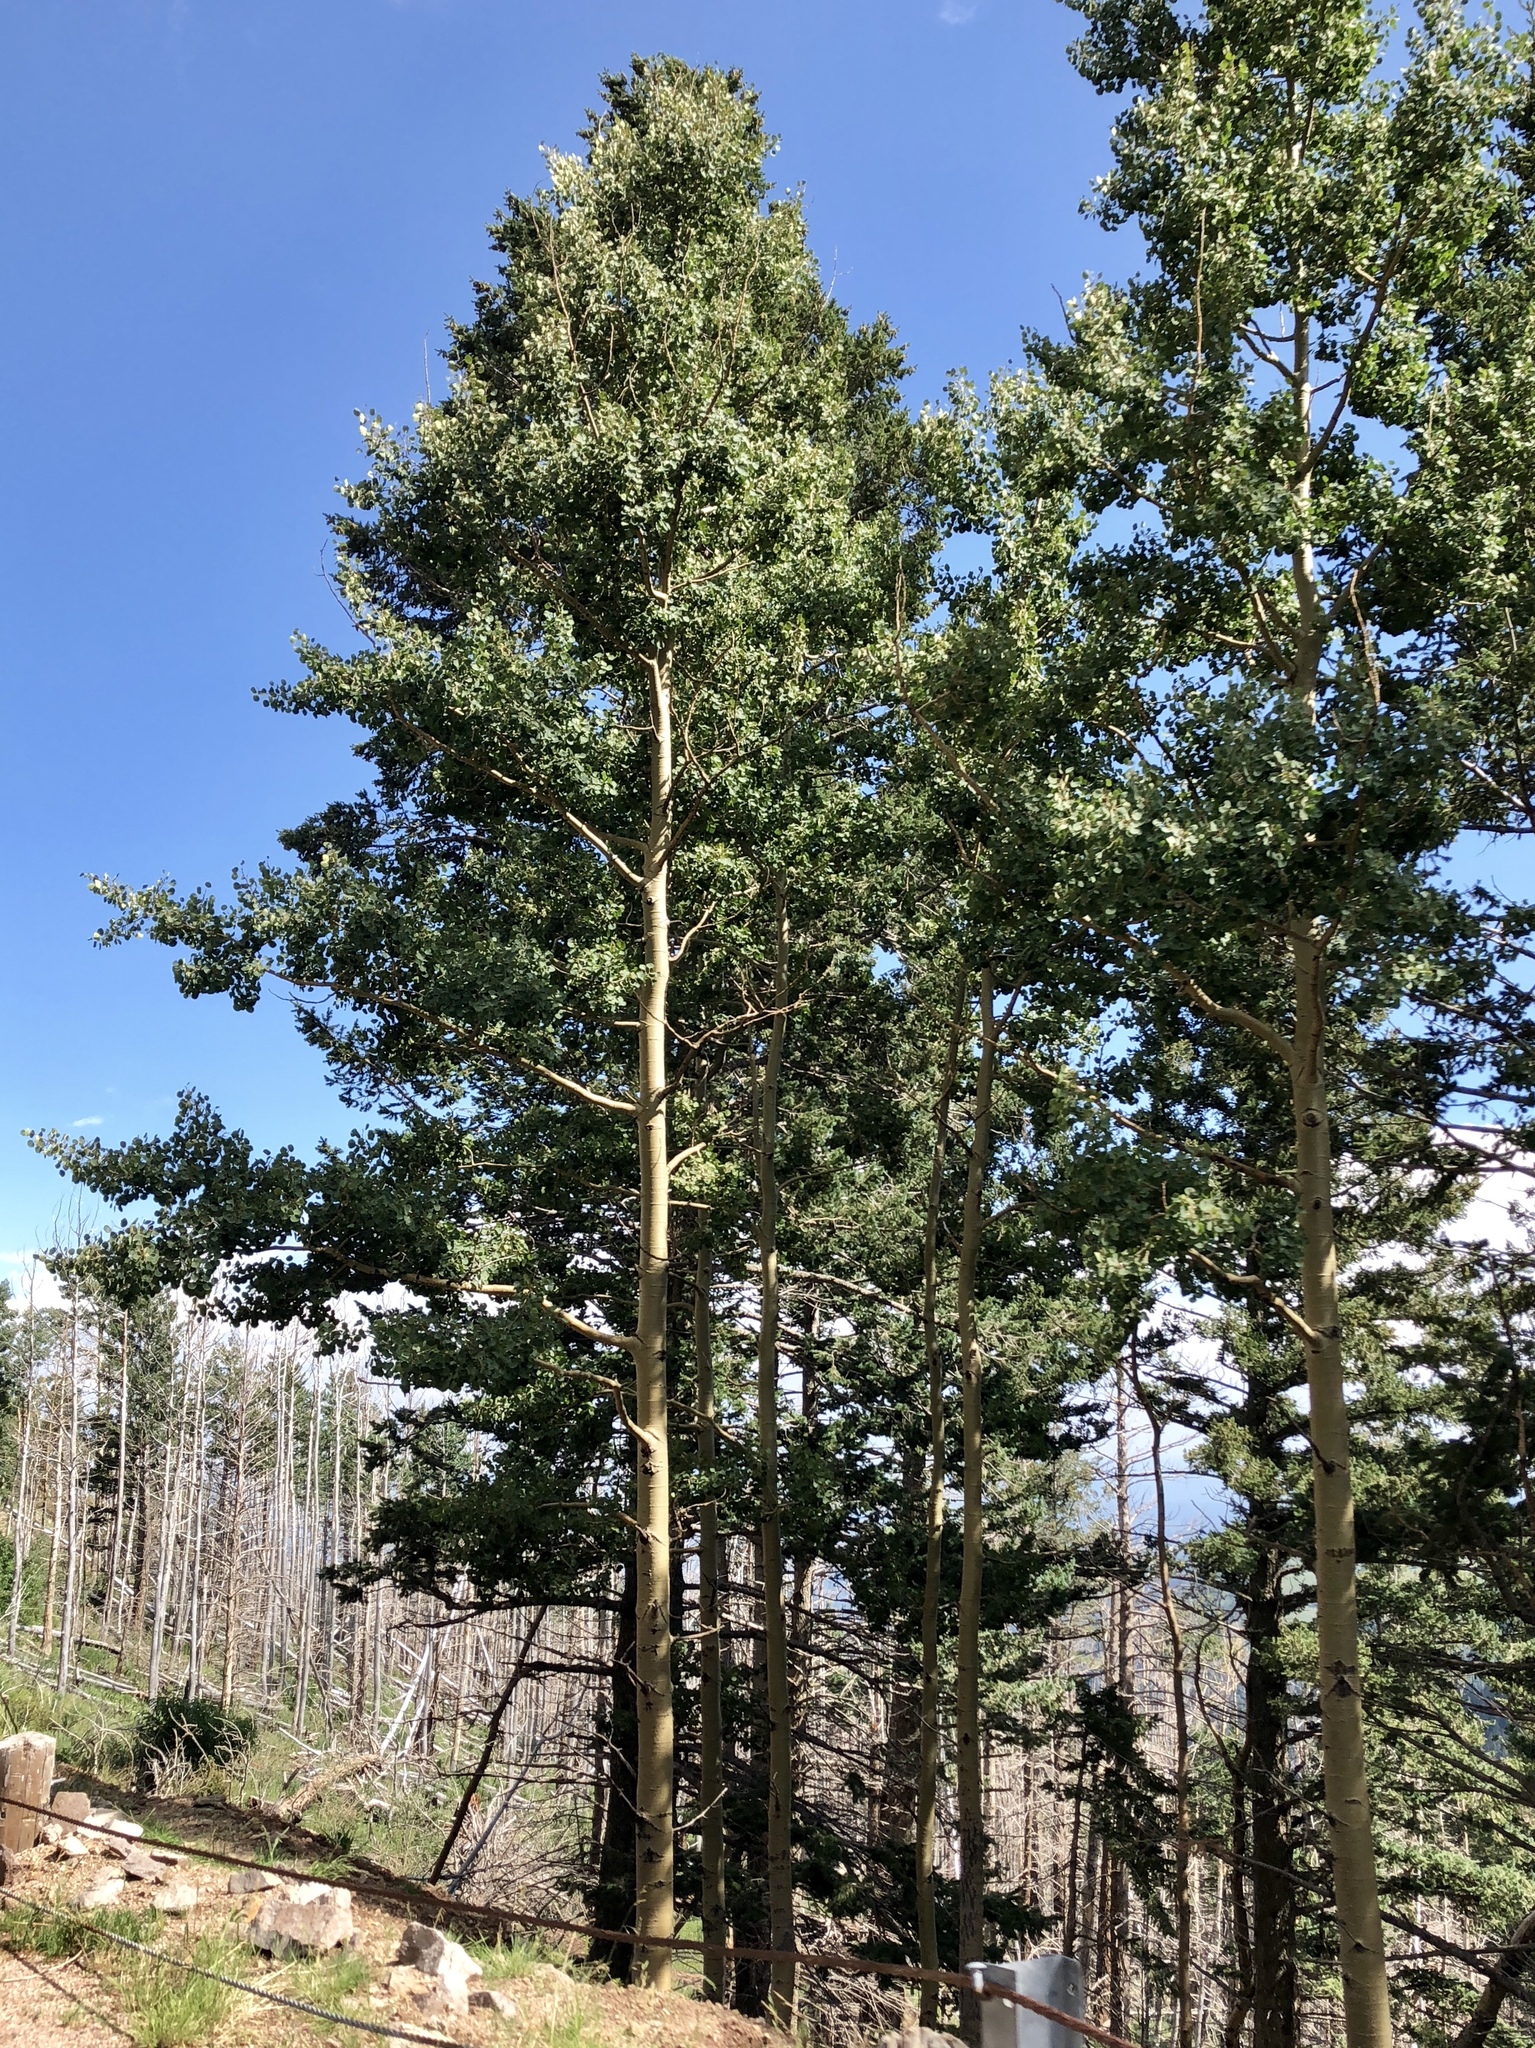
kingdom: Plantae
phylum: Tracheophyta
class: Magnoliopsida
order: Malpighiales
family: Salicaceae
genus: Populus
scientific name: Populus tremuloides
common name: Quaking aspen
